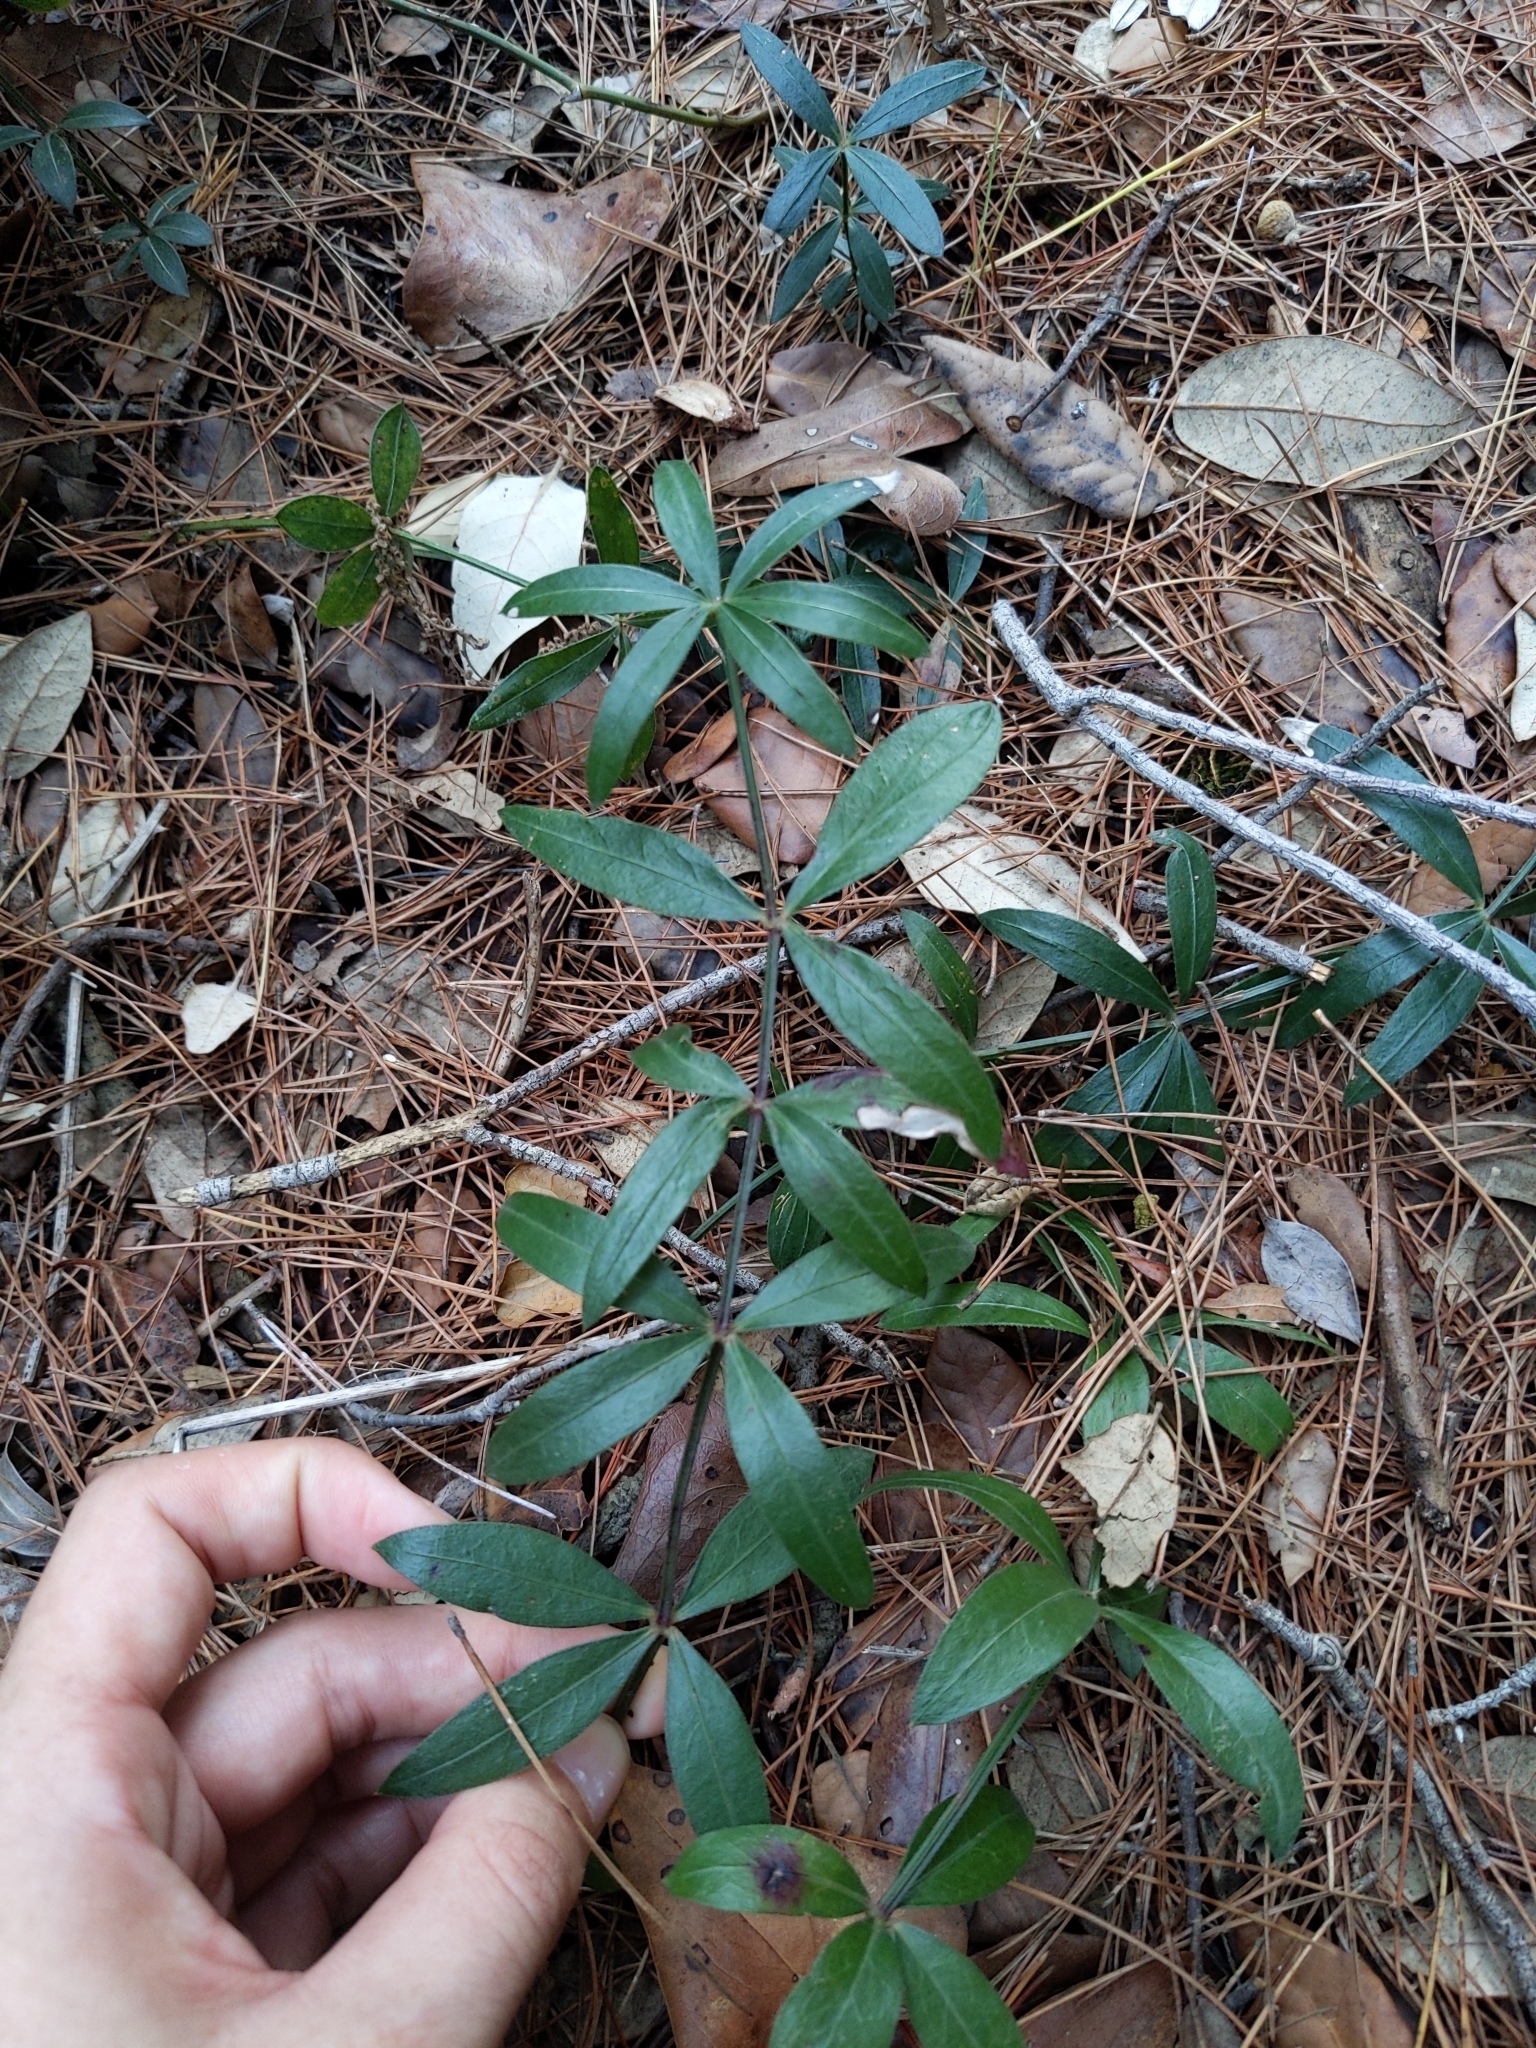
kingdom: Plantae
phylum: Tracheophyta
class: Magnoliopsida
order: Gentianales
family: Rubiaceae
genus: Rubia
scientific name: Rubia peregrina
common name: Wild madder
